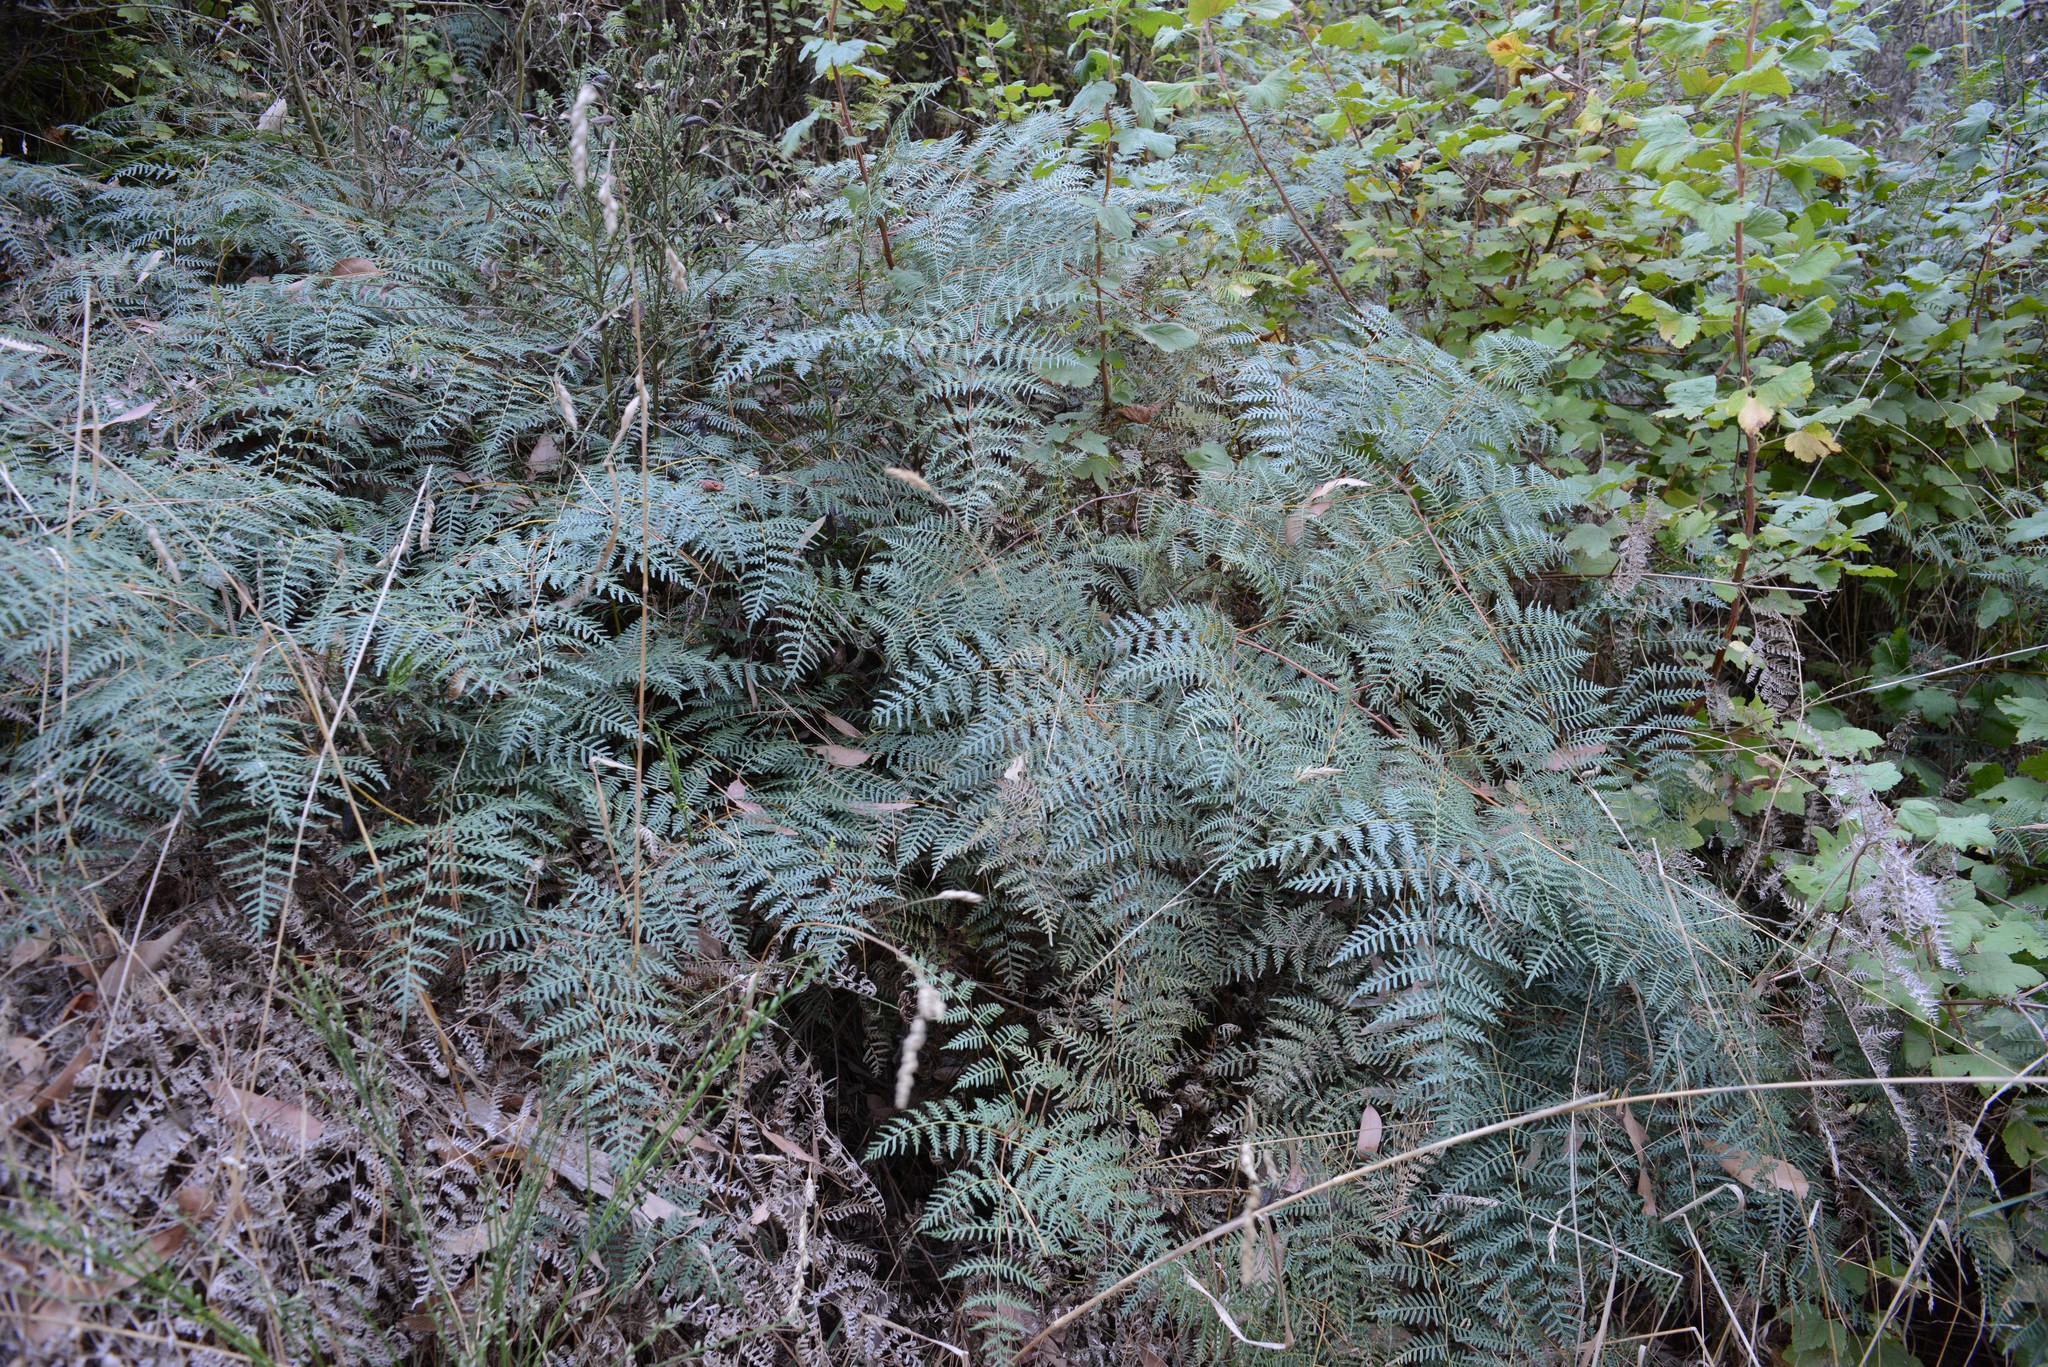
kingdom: Plantae
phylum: Tracheophyta
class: Polypodiopsida
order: Polypodiales
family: Dennstaedtiaceae
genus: Pteridium
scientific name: Pteridium esculentum
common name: Bracken fern
